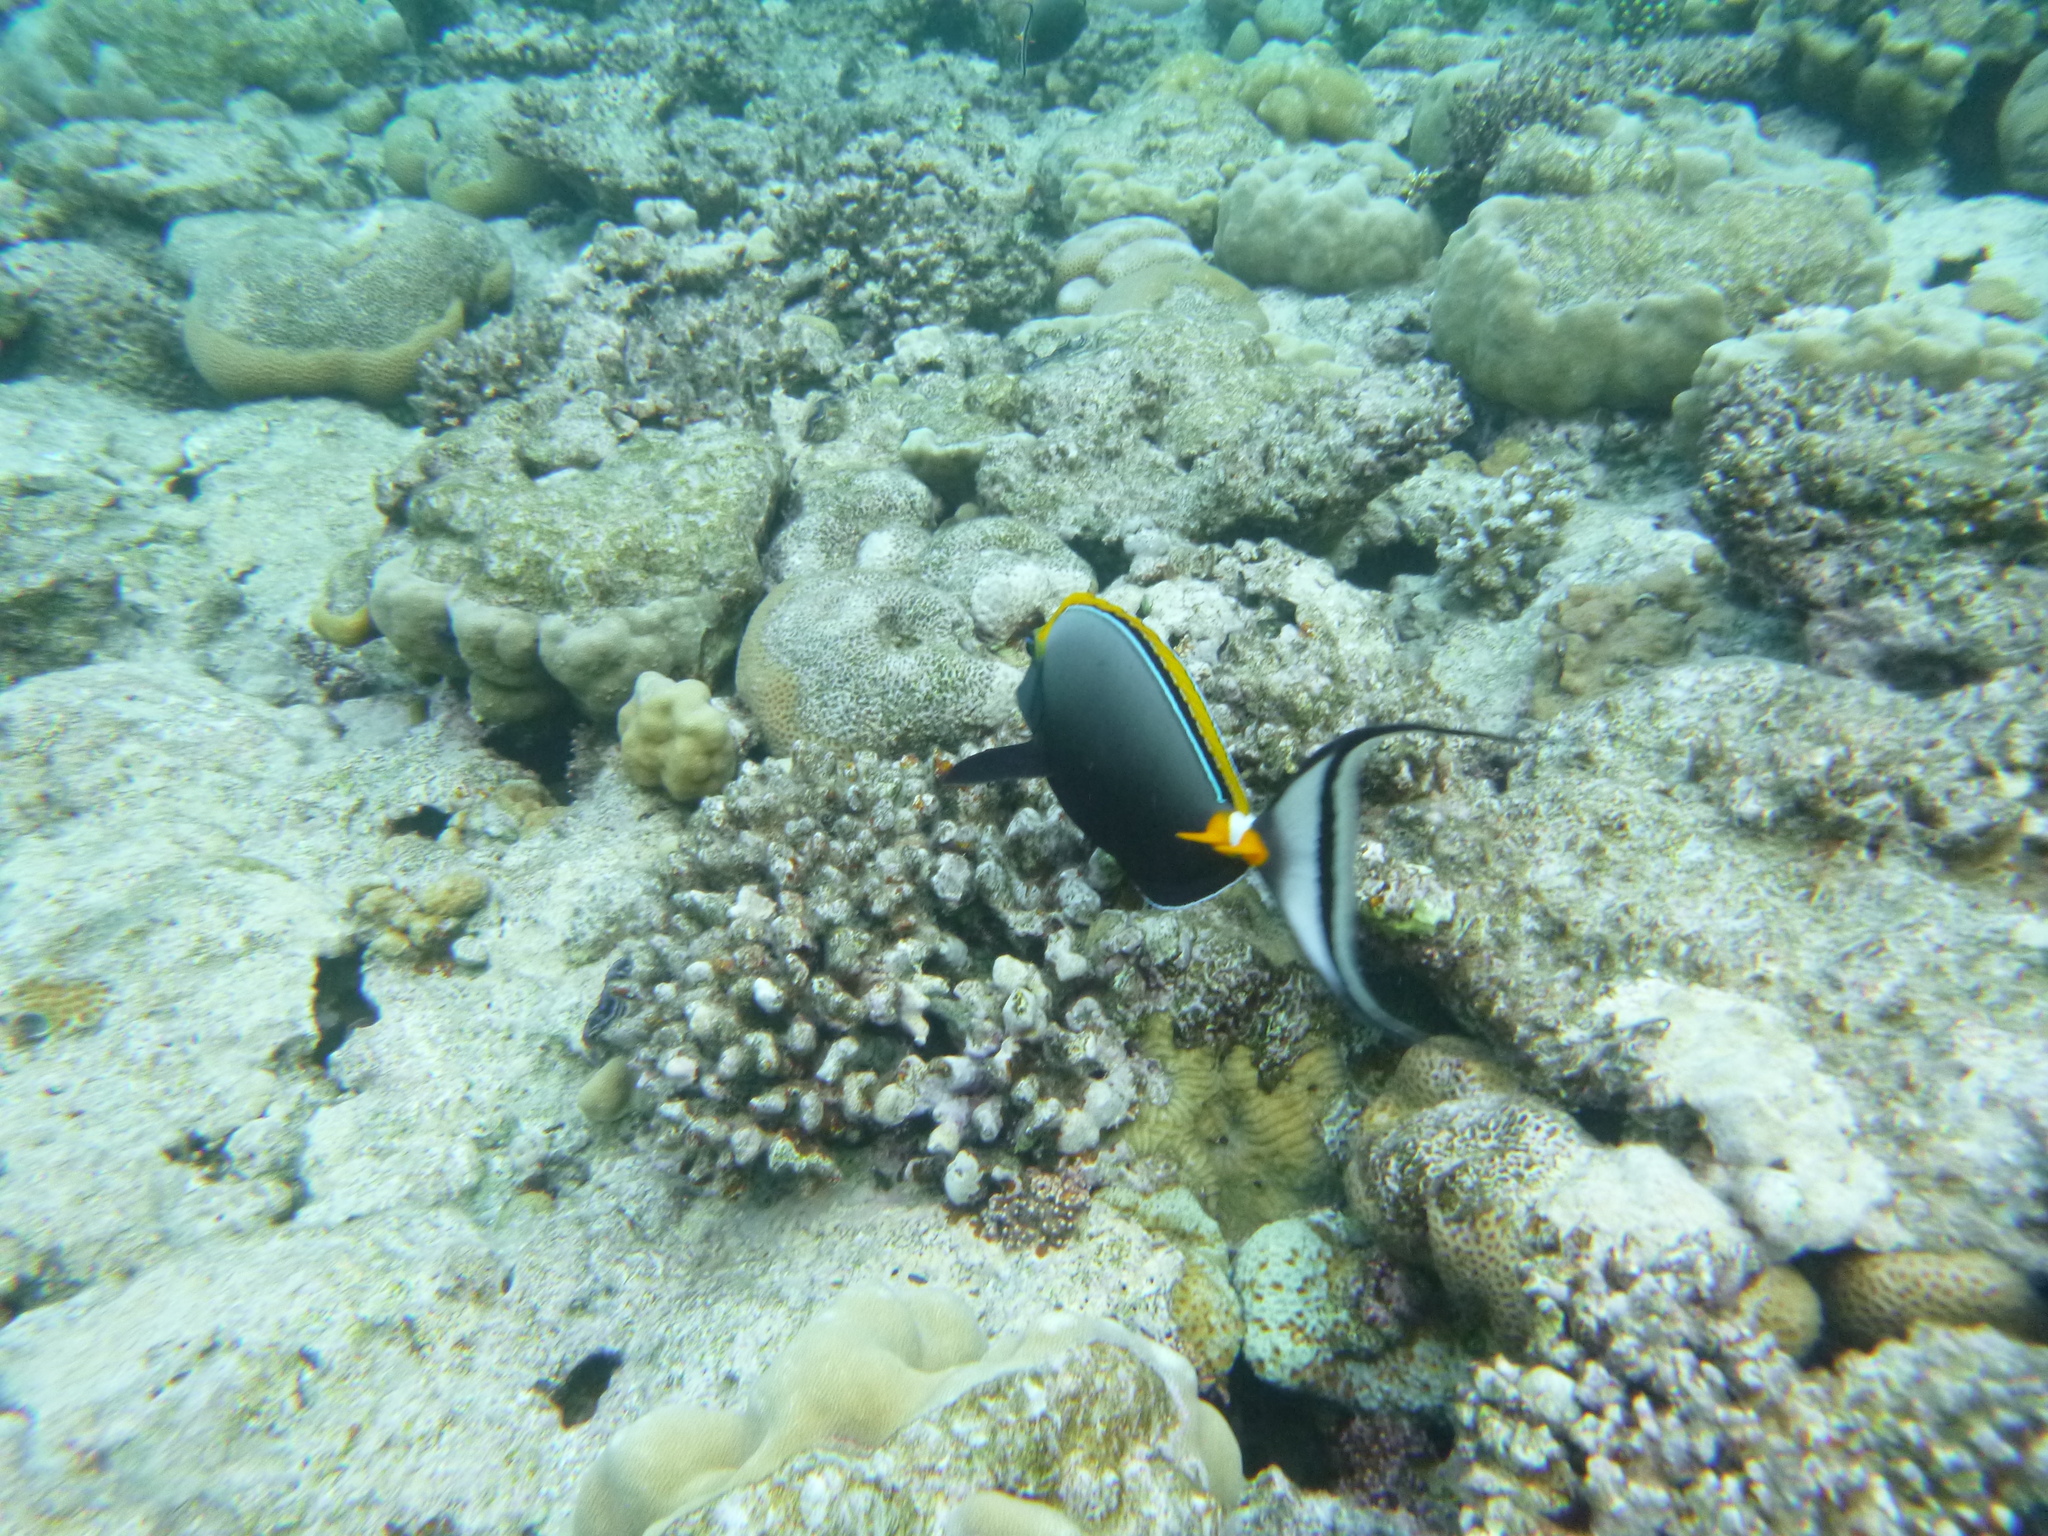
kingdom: Animalia
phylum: Chordata
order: Perciformes
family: Acanthuridae
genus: Naso
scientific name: Naso elegans
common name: Orangespine unicornfish
